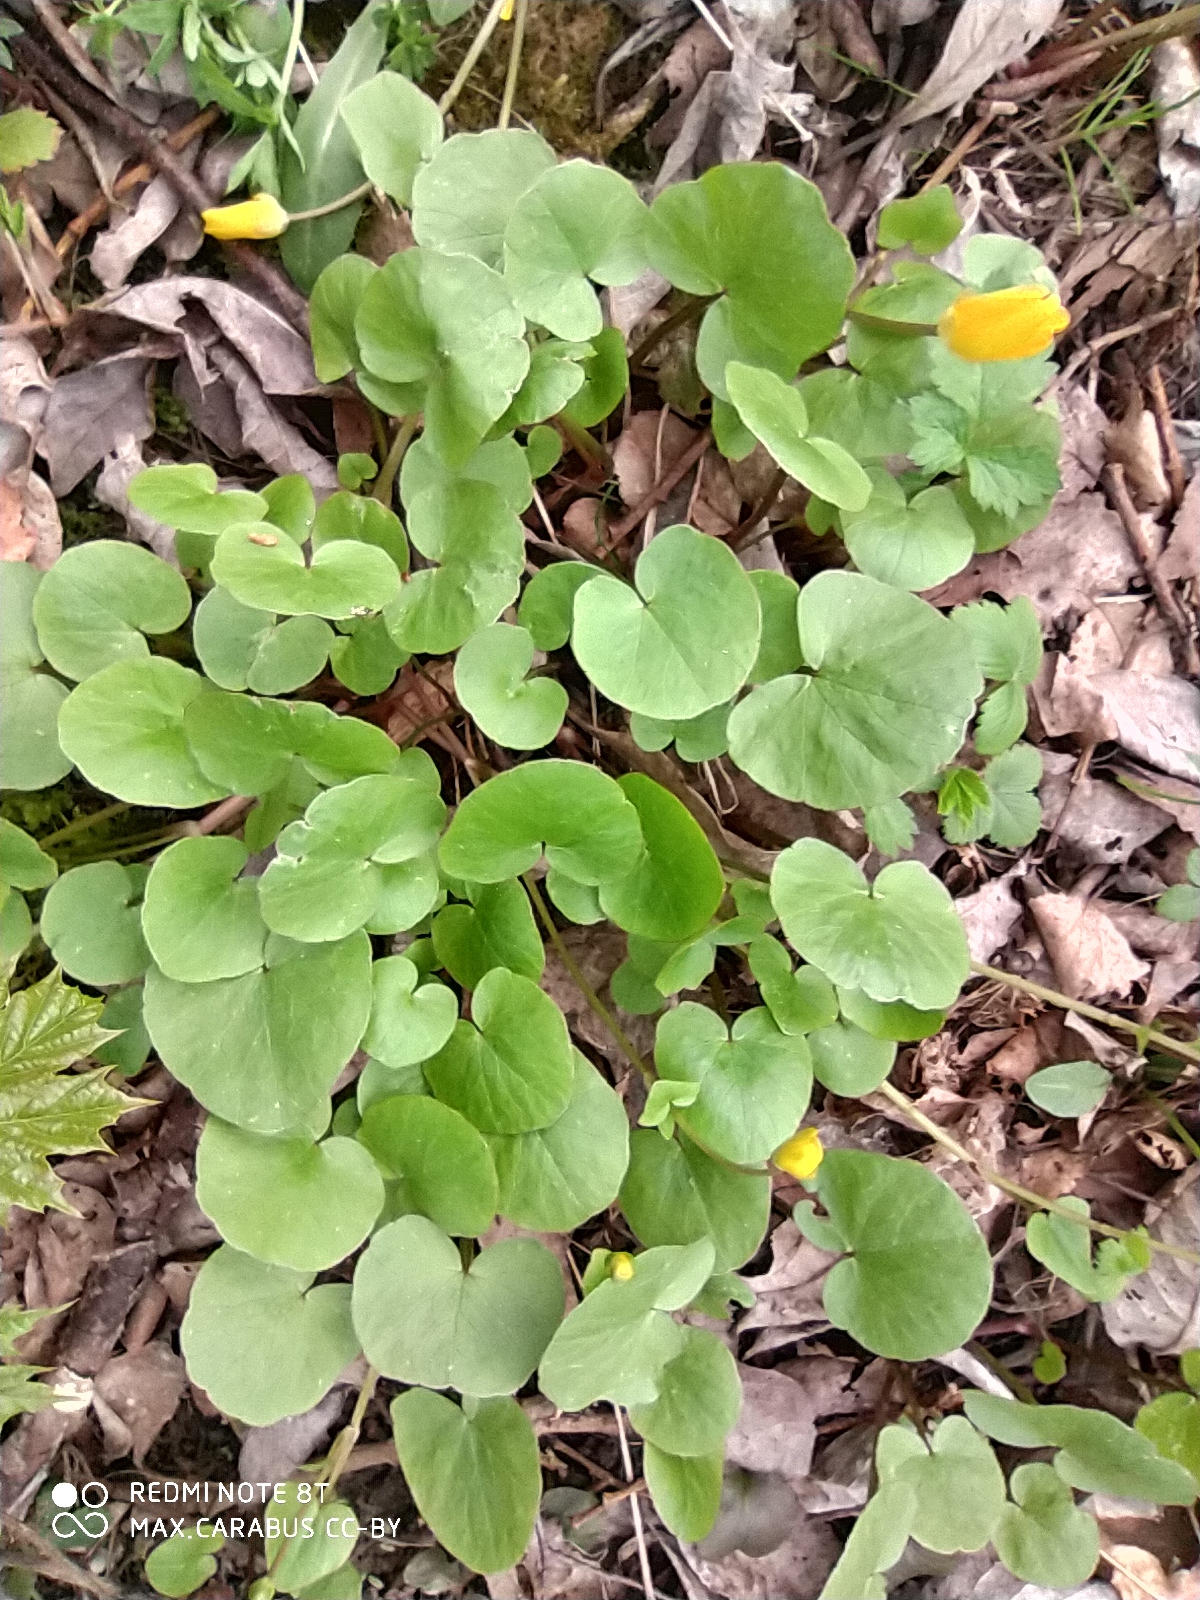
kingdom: Plantae
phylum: Tracheophyta
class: Magnoliopsida
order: Ranunculales
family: Ranunculaceae
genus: Ficaria
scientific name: Ficaria verna
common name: Lesser celandine
